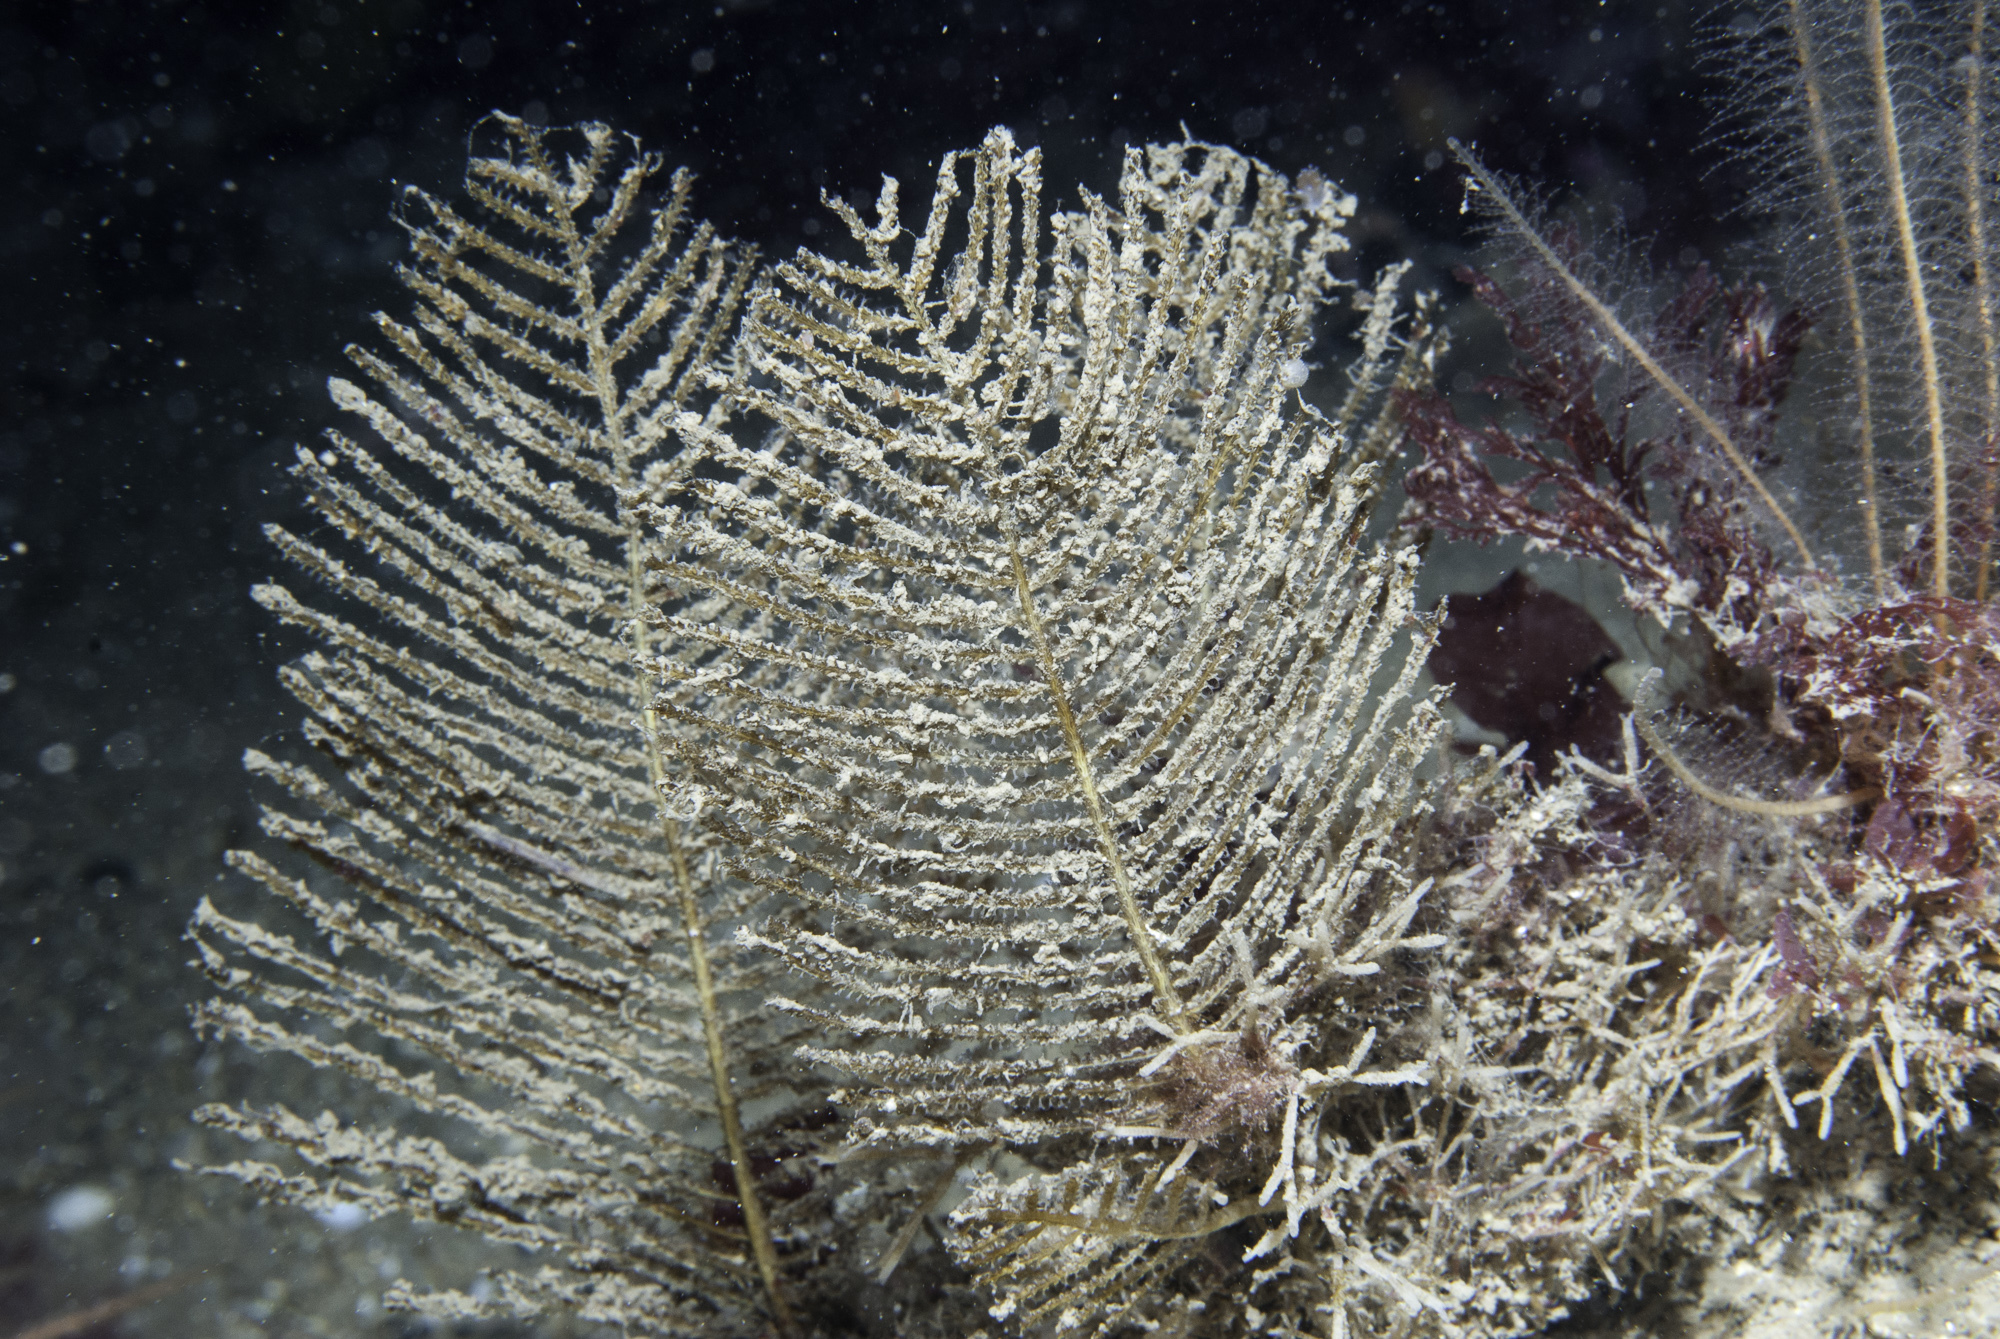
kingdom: Animalia
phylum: Cnidaria
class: Hydrozoa
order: Leptothecata
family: Sertulariidae
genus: Thuiaria
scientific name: Thuiaria articulata
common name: Sea spleenwort
